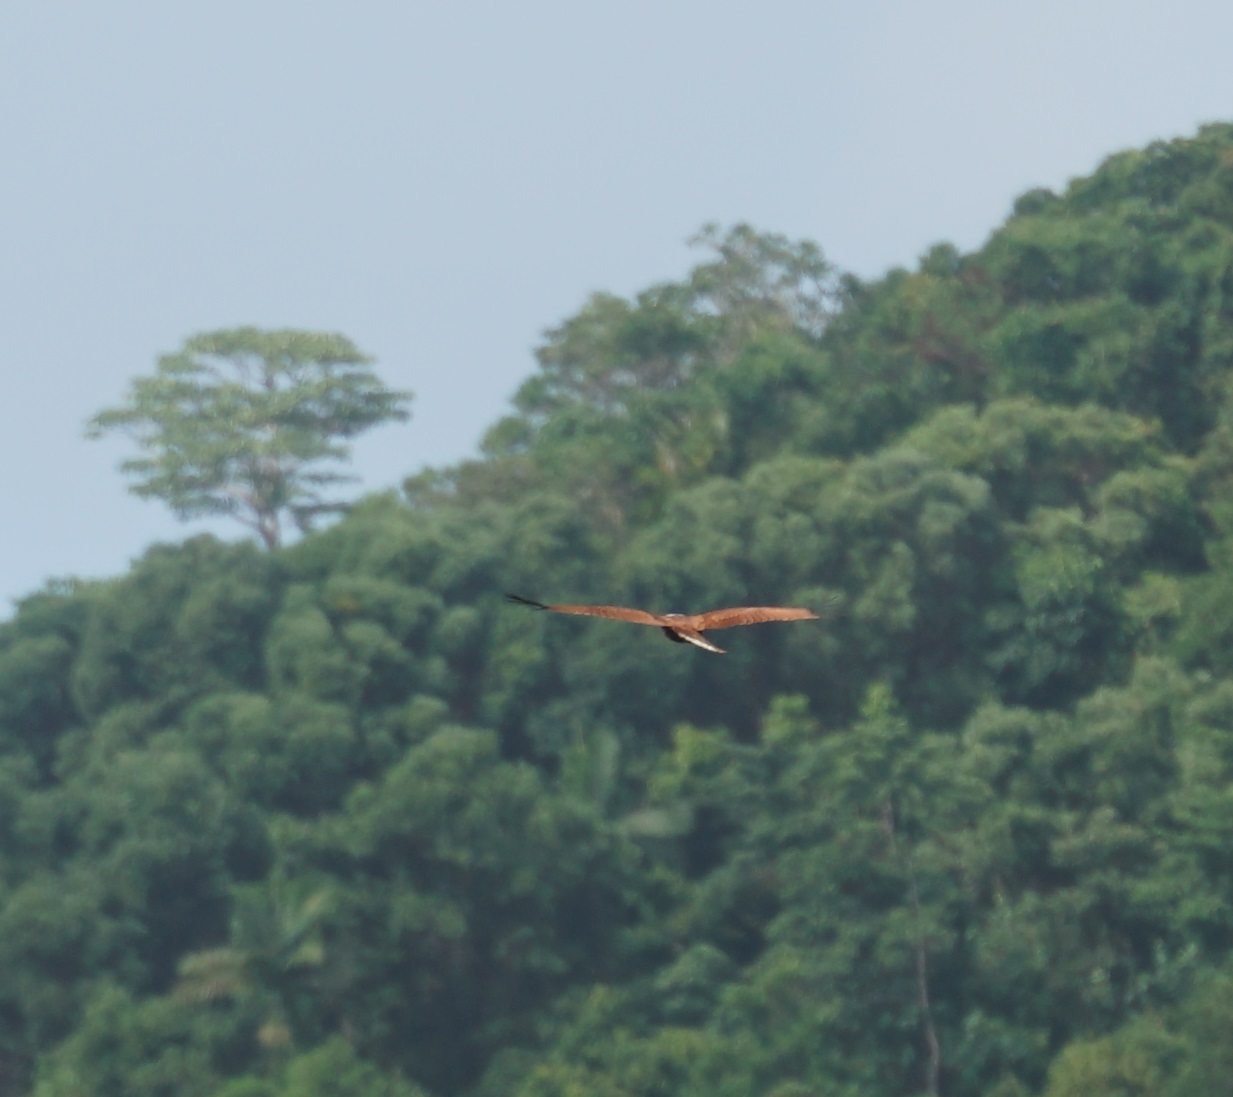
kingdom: Animalia
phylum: Chordata
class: Aves
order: Accipitriformes
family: Accipitridae
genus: Haliastur
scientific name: Haliastur indus
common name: Brahminy kite
